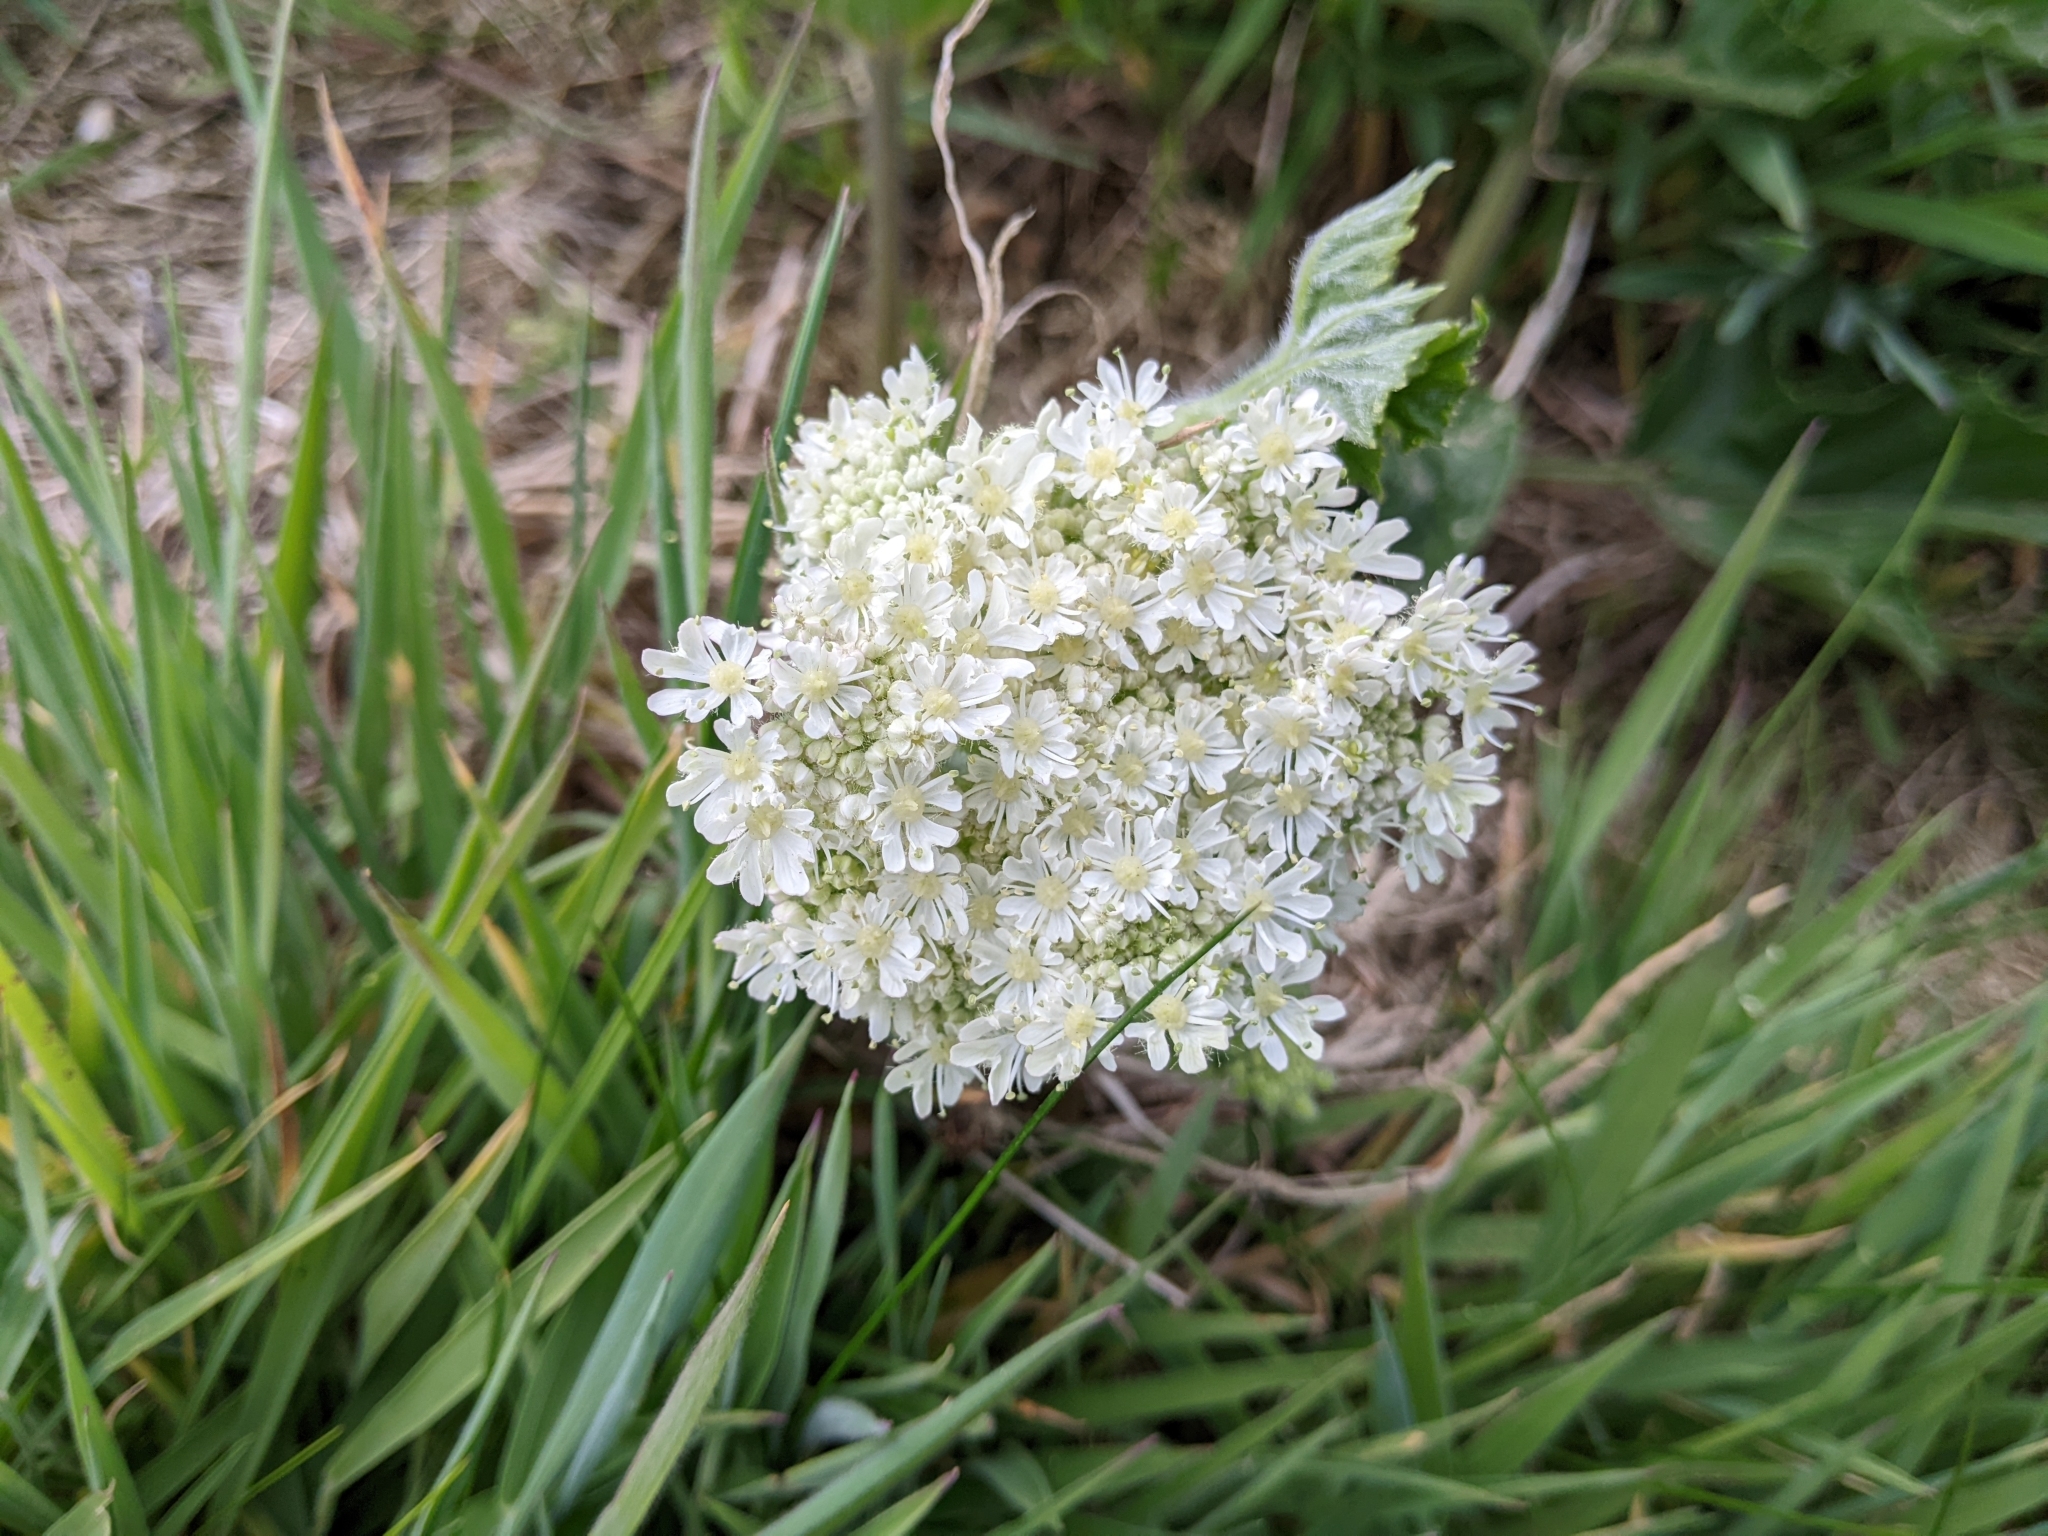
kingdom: Plantae
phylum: Tracheophyta
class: Magnoliopsida
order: Apiales
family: Apiaceae
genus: Heracleum
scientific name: Heracleum sphondylium
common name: Hogweed
